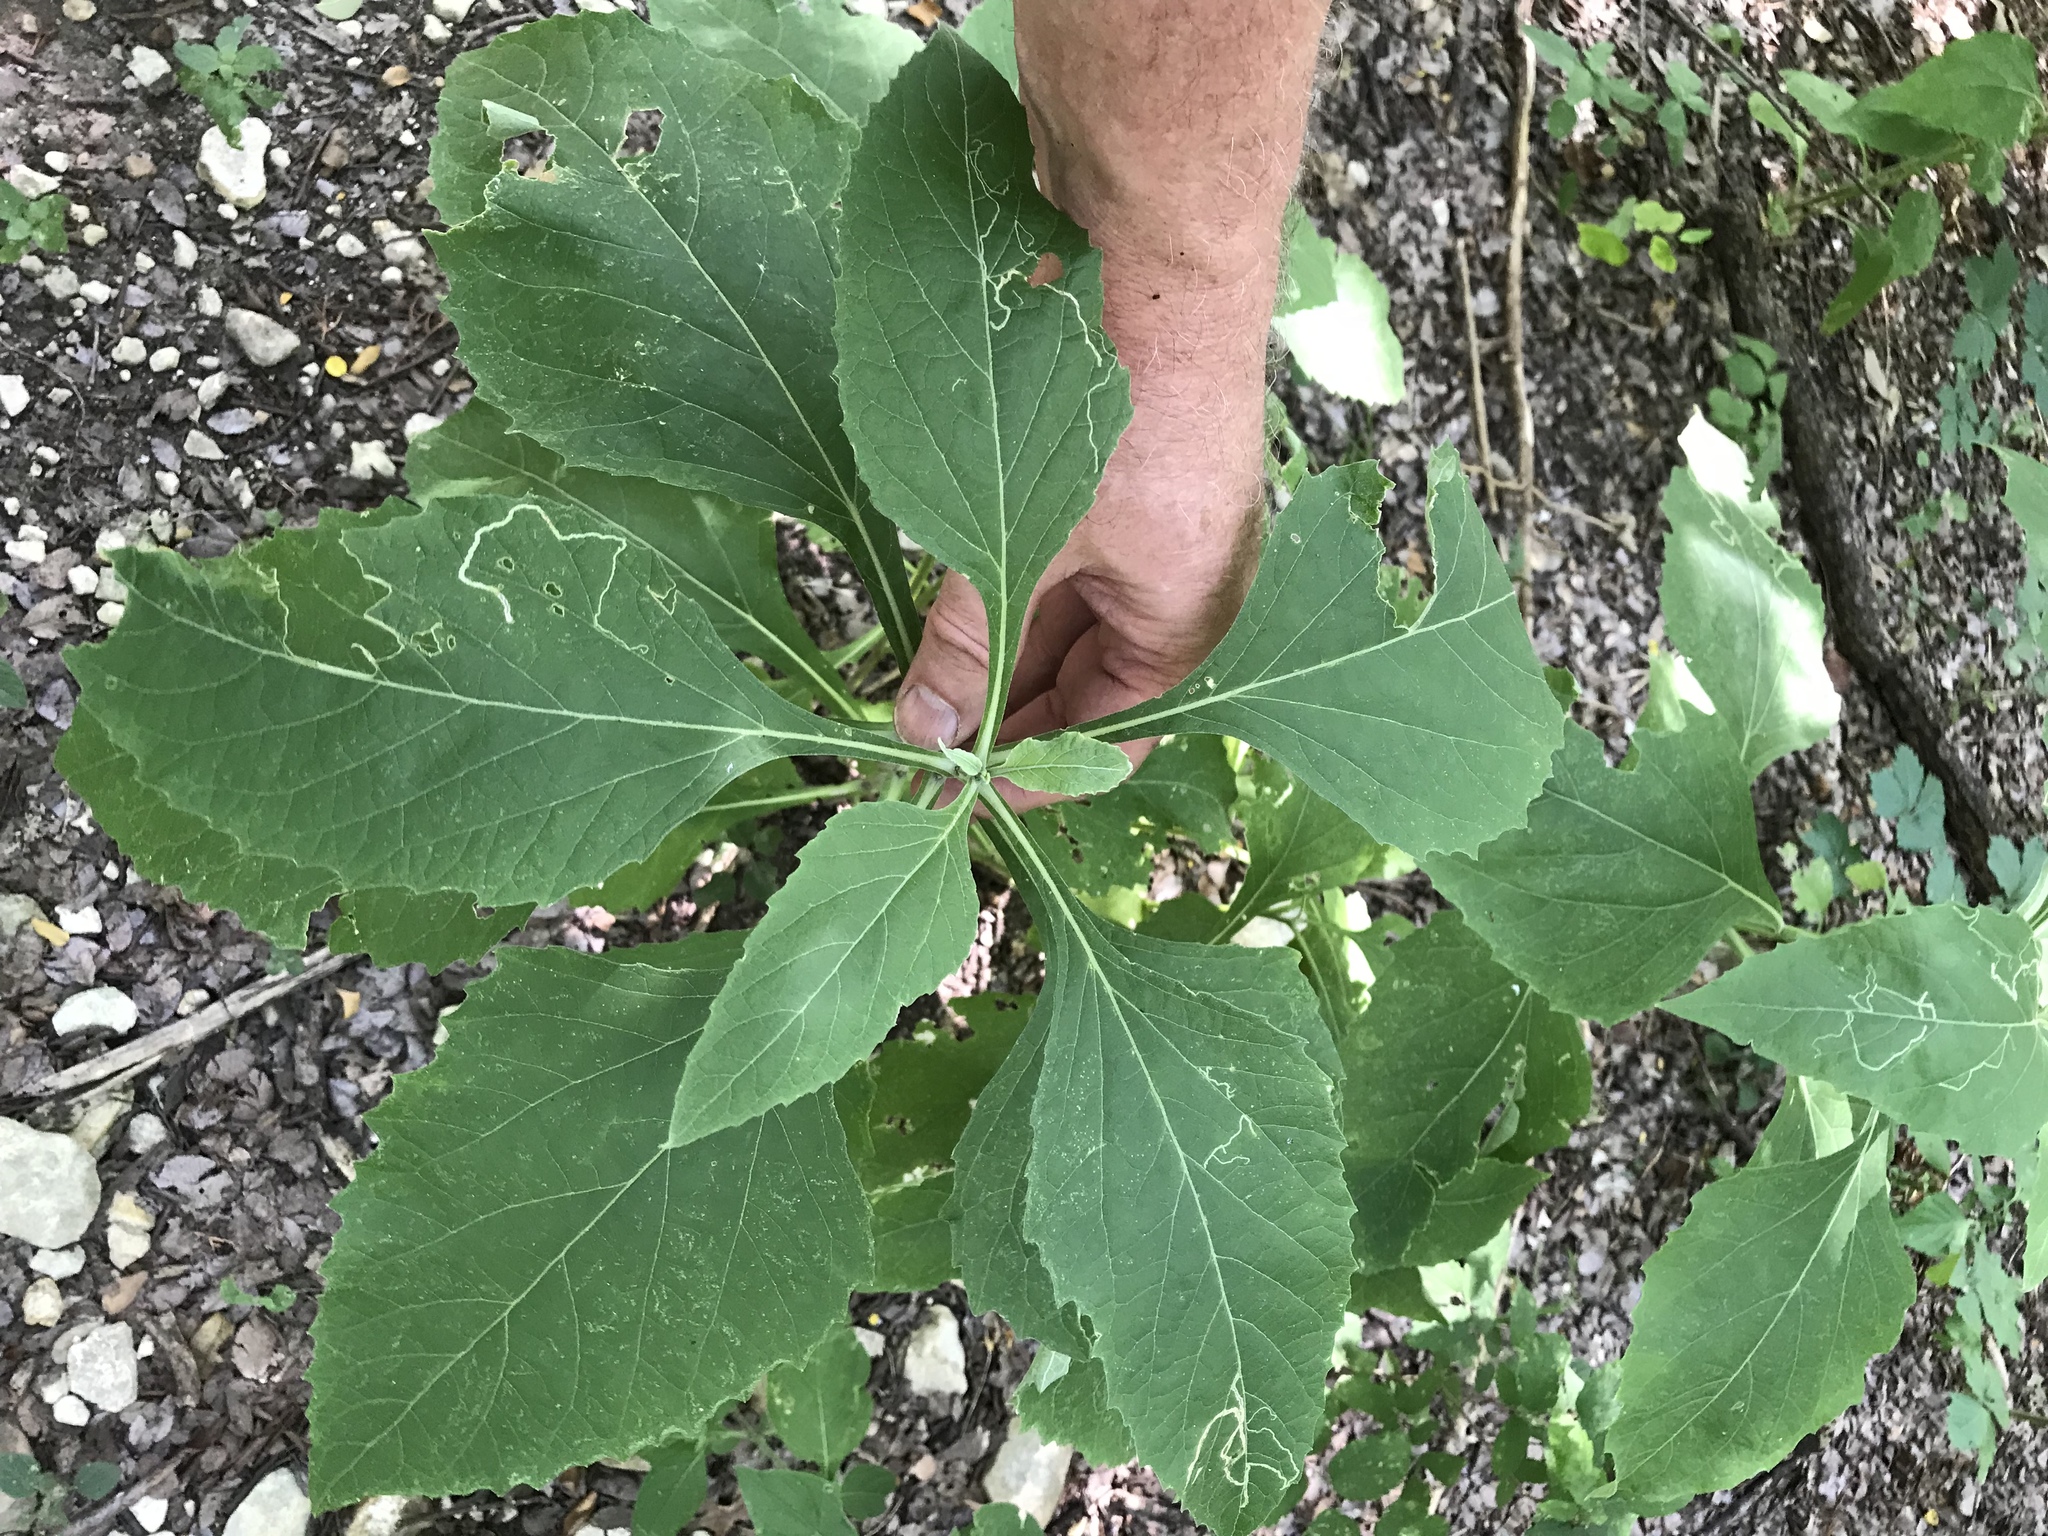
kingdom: Plantae
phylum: Tracheophyta
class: Magnoliopsida
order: Asterales
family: Asteraceae
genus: Verbesina
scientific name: Verbesina virginica
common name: Frostweed
